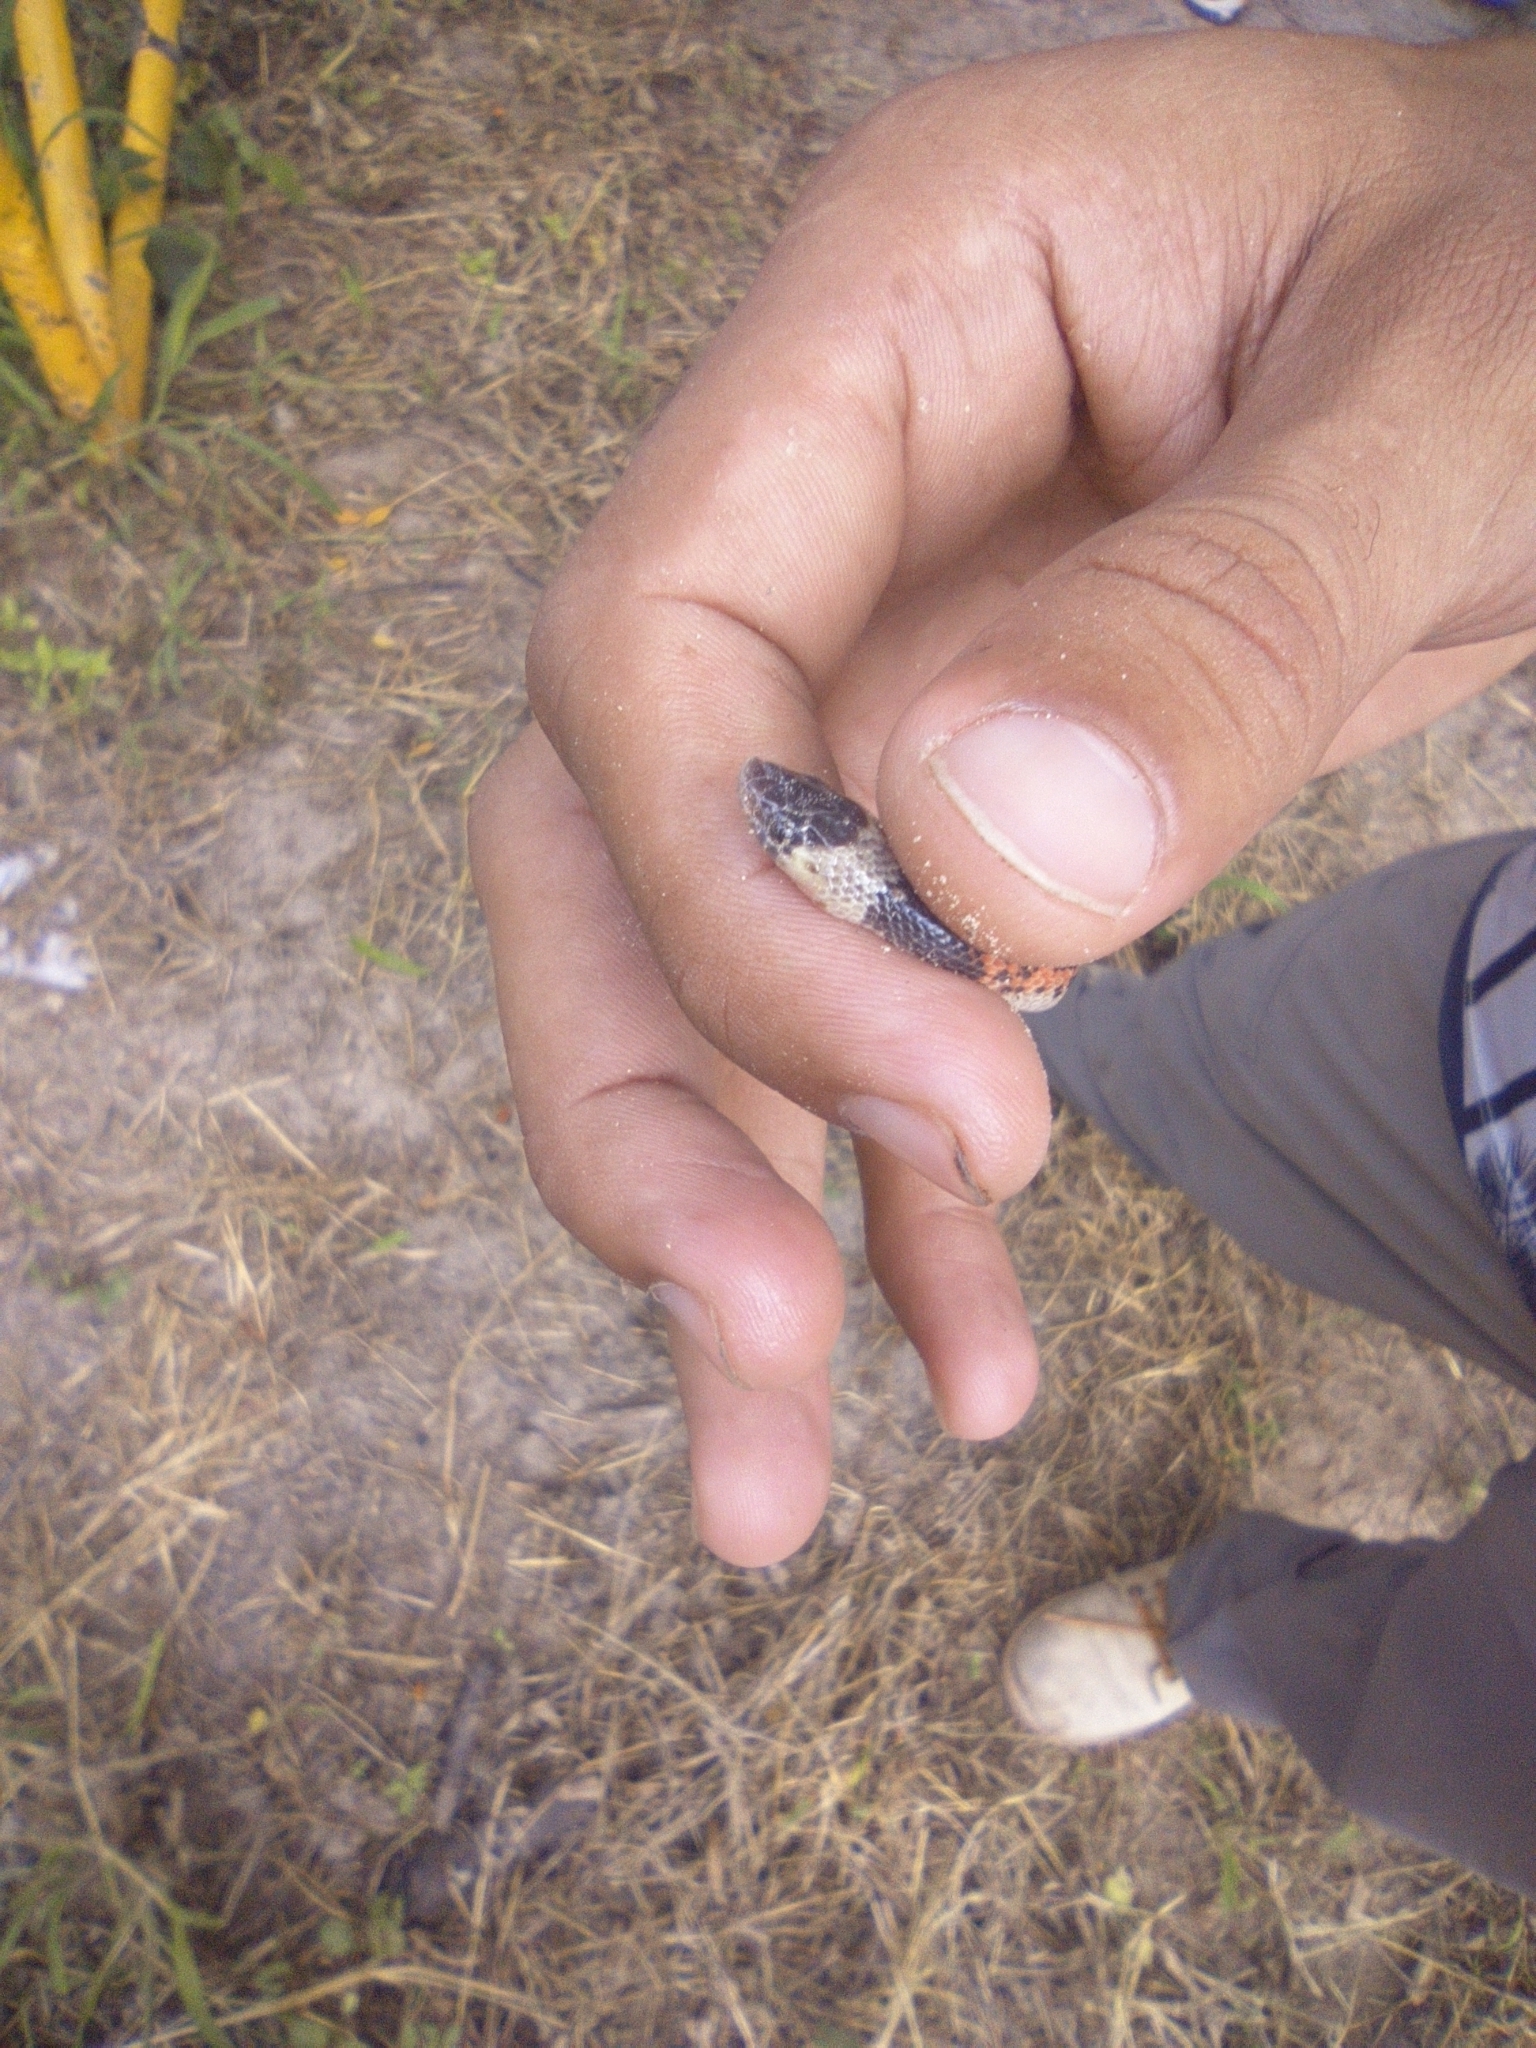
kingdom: Animalia
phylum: Chordata
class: Squamata
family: Colubridae
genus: Phimophis
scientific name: Phimophis guianensis
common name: Troschel's pampas snake
